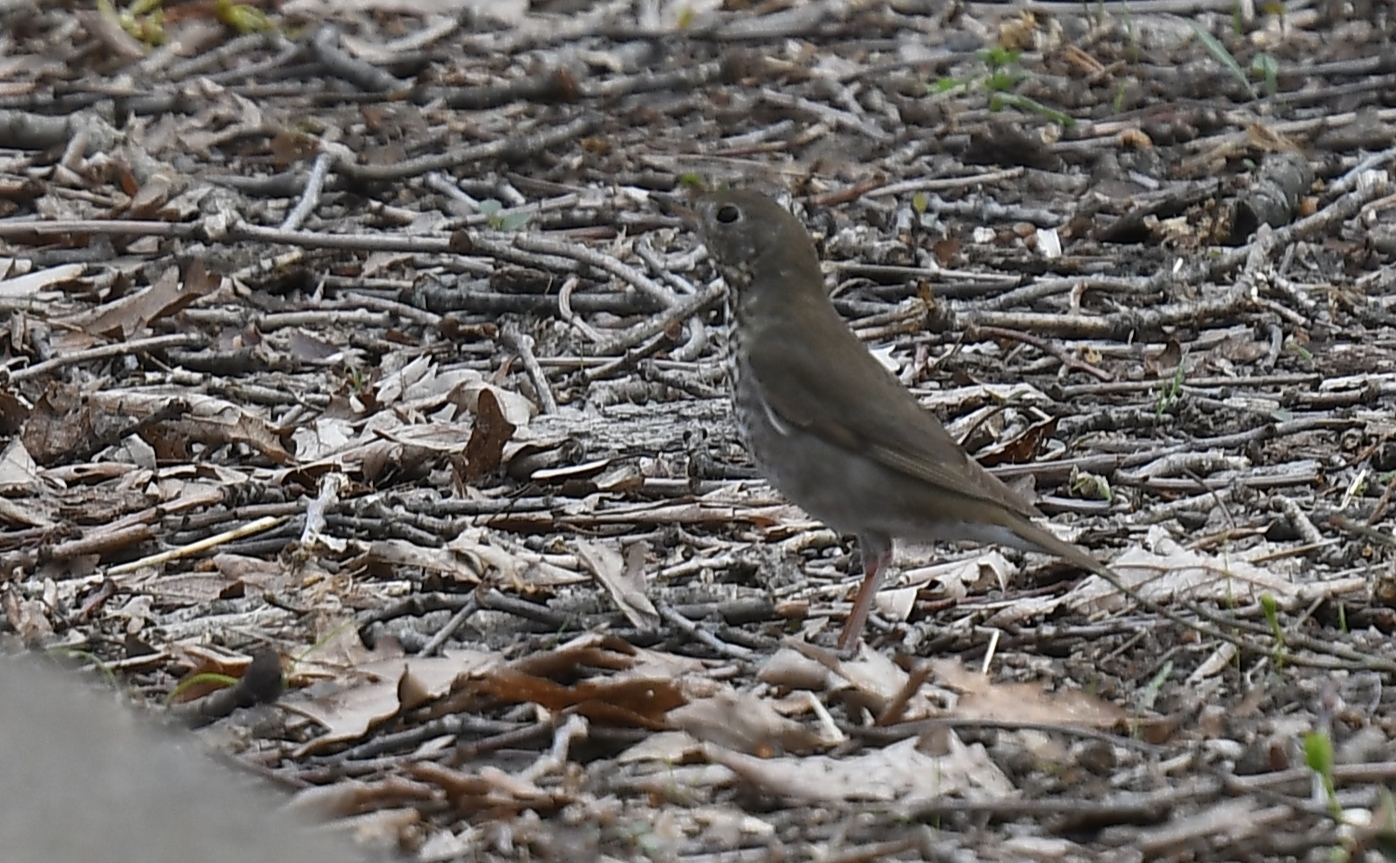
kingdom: Animalia
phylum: Chordata
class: Aves
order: Passeriformes
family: Turdidae
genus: Catharus
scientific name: Catharus minimus
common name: Grey-cheeked thrush
